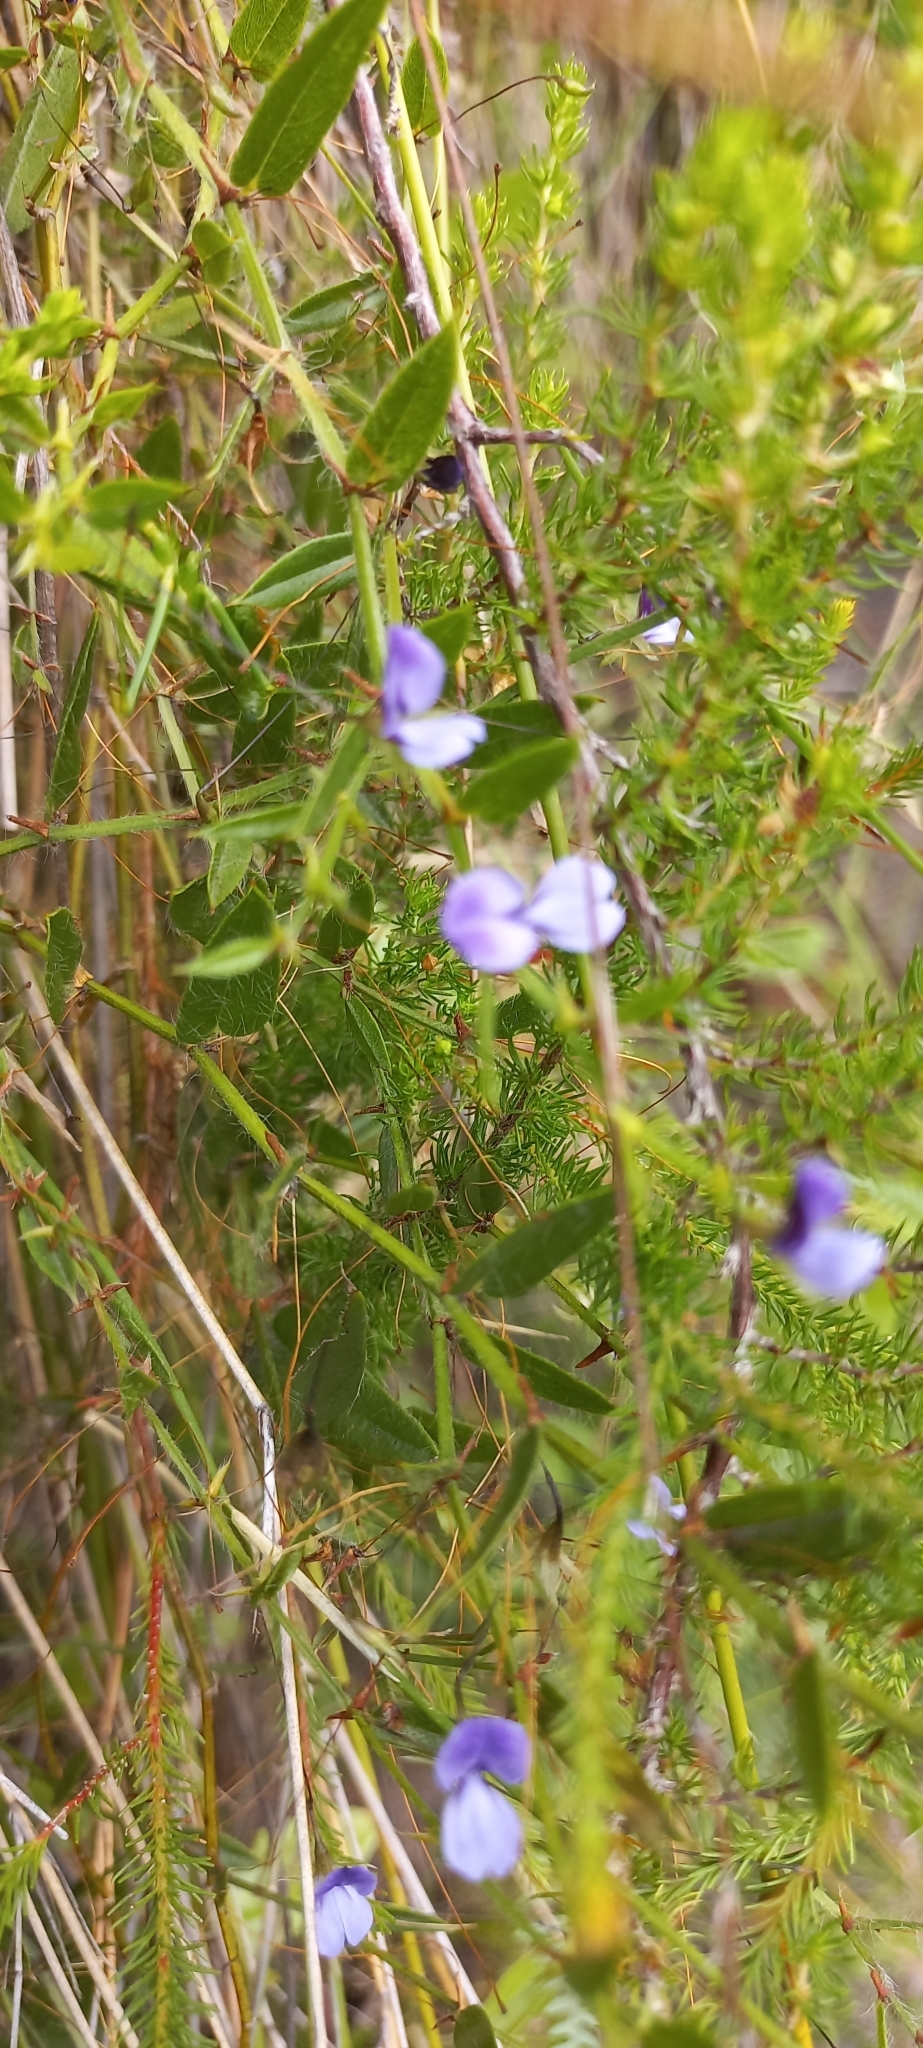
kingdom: Plantae
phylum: Tracheophyta
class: Magnoliopsida
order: Fabales
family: Fabaceae
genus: Psoralea
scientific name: Psoralea monophylla
